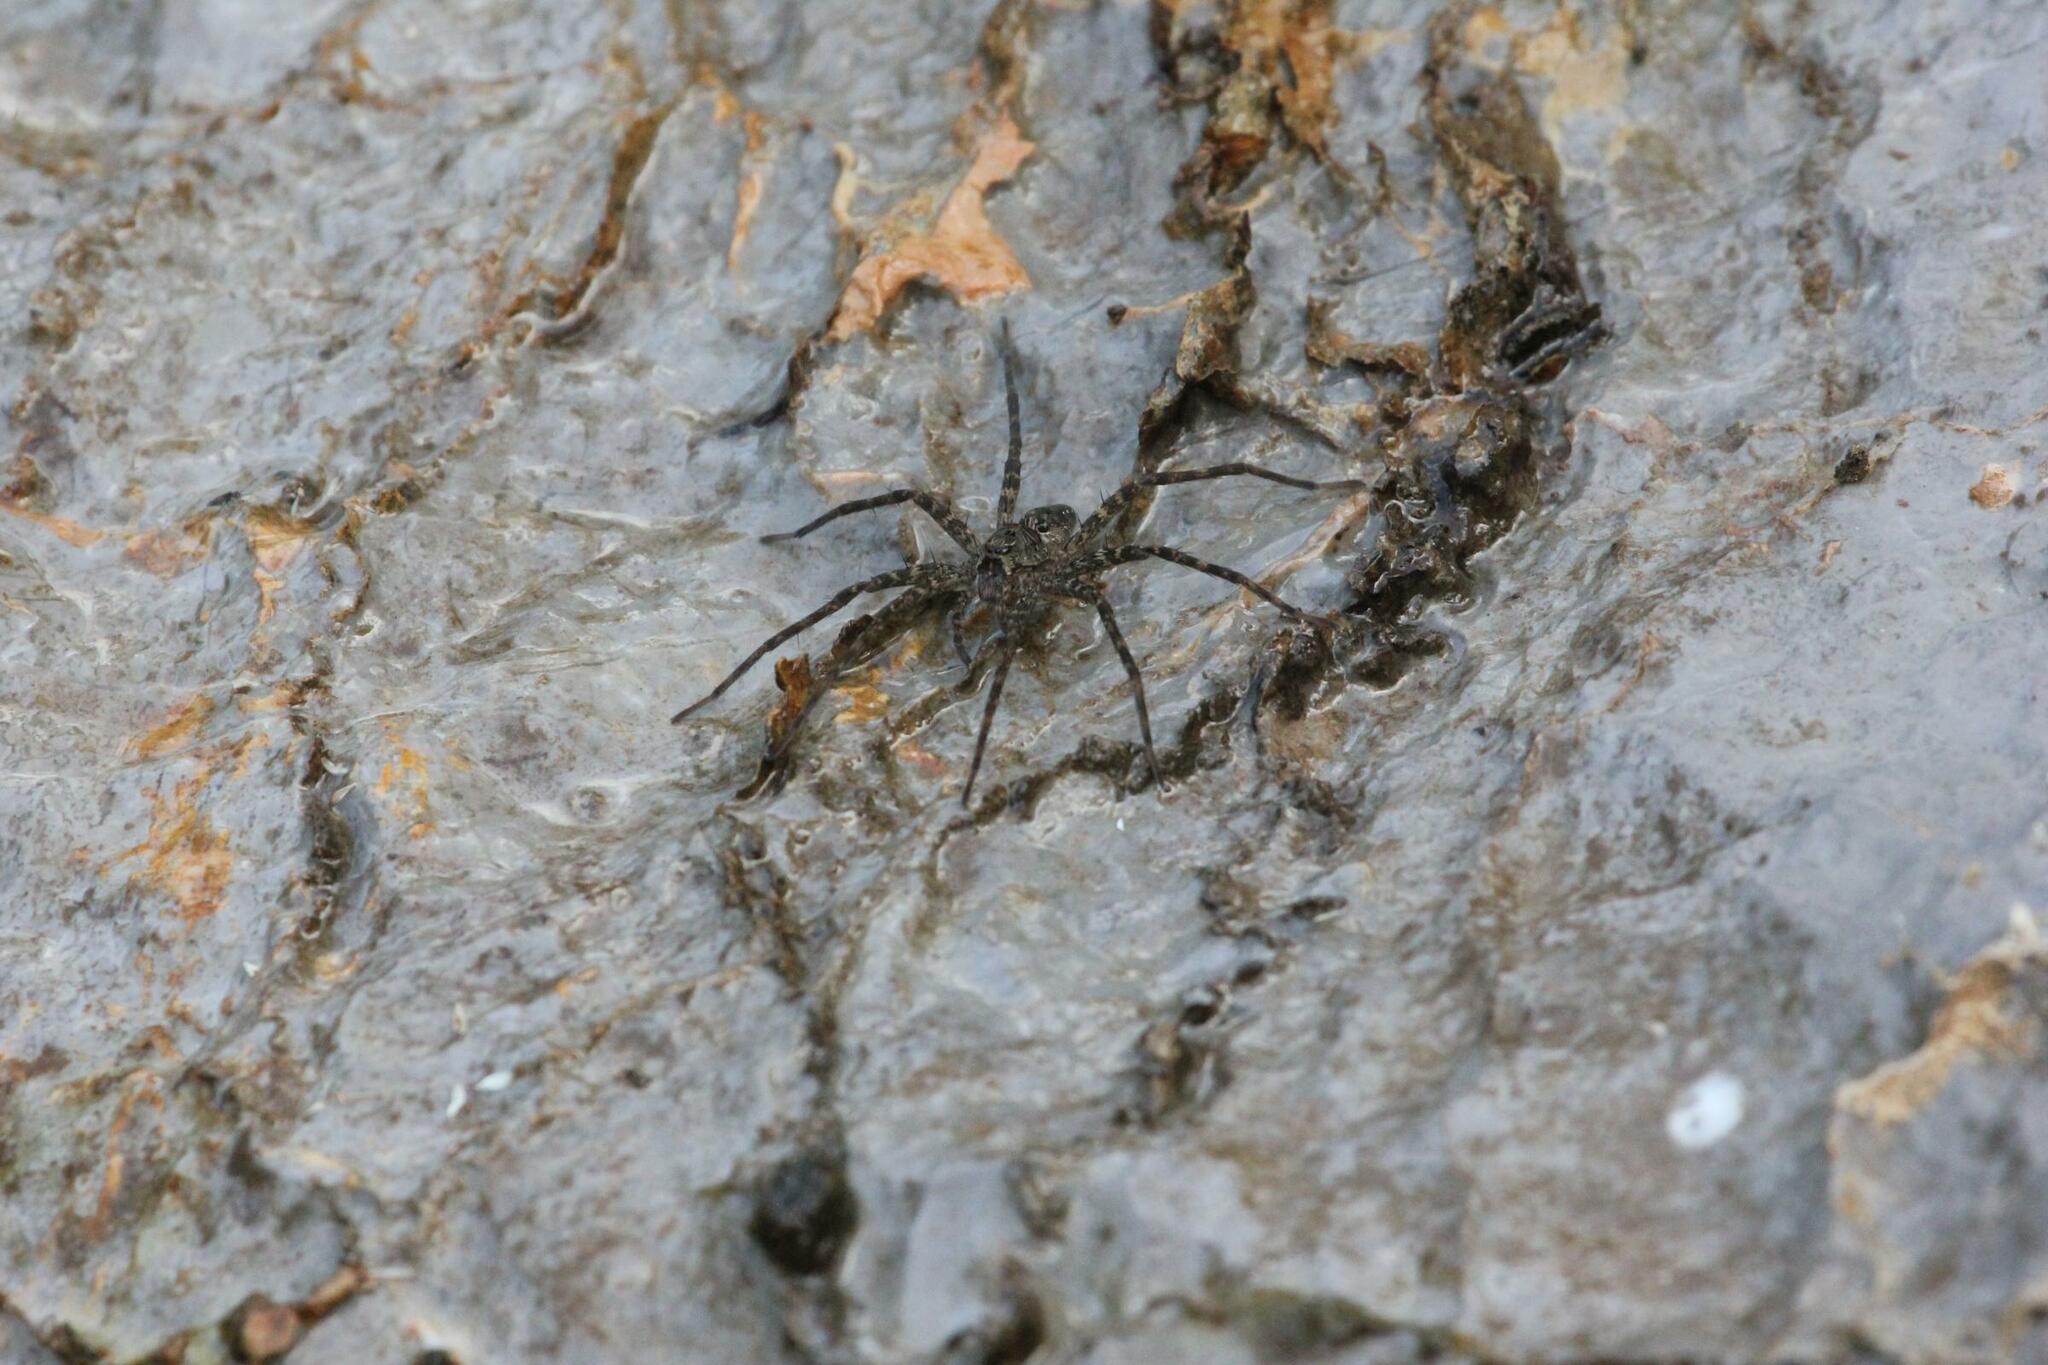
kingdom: Animalia
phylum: Arthropoda
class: Arachnida
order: Araneae
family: Pisauridae
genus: Dolomedes
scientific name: Dolomedes vittatus
